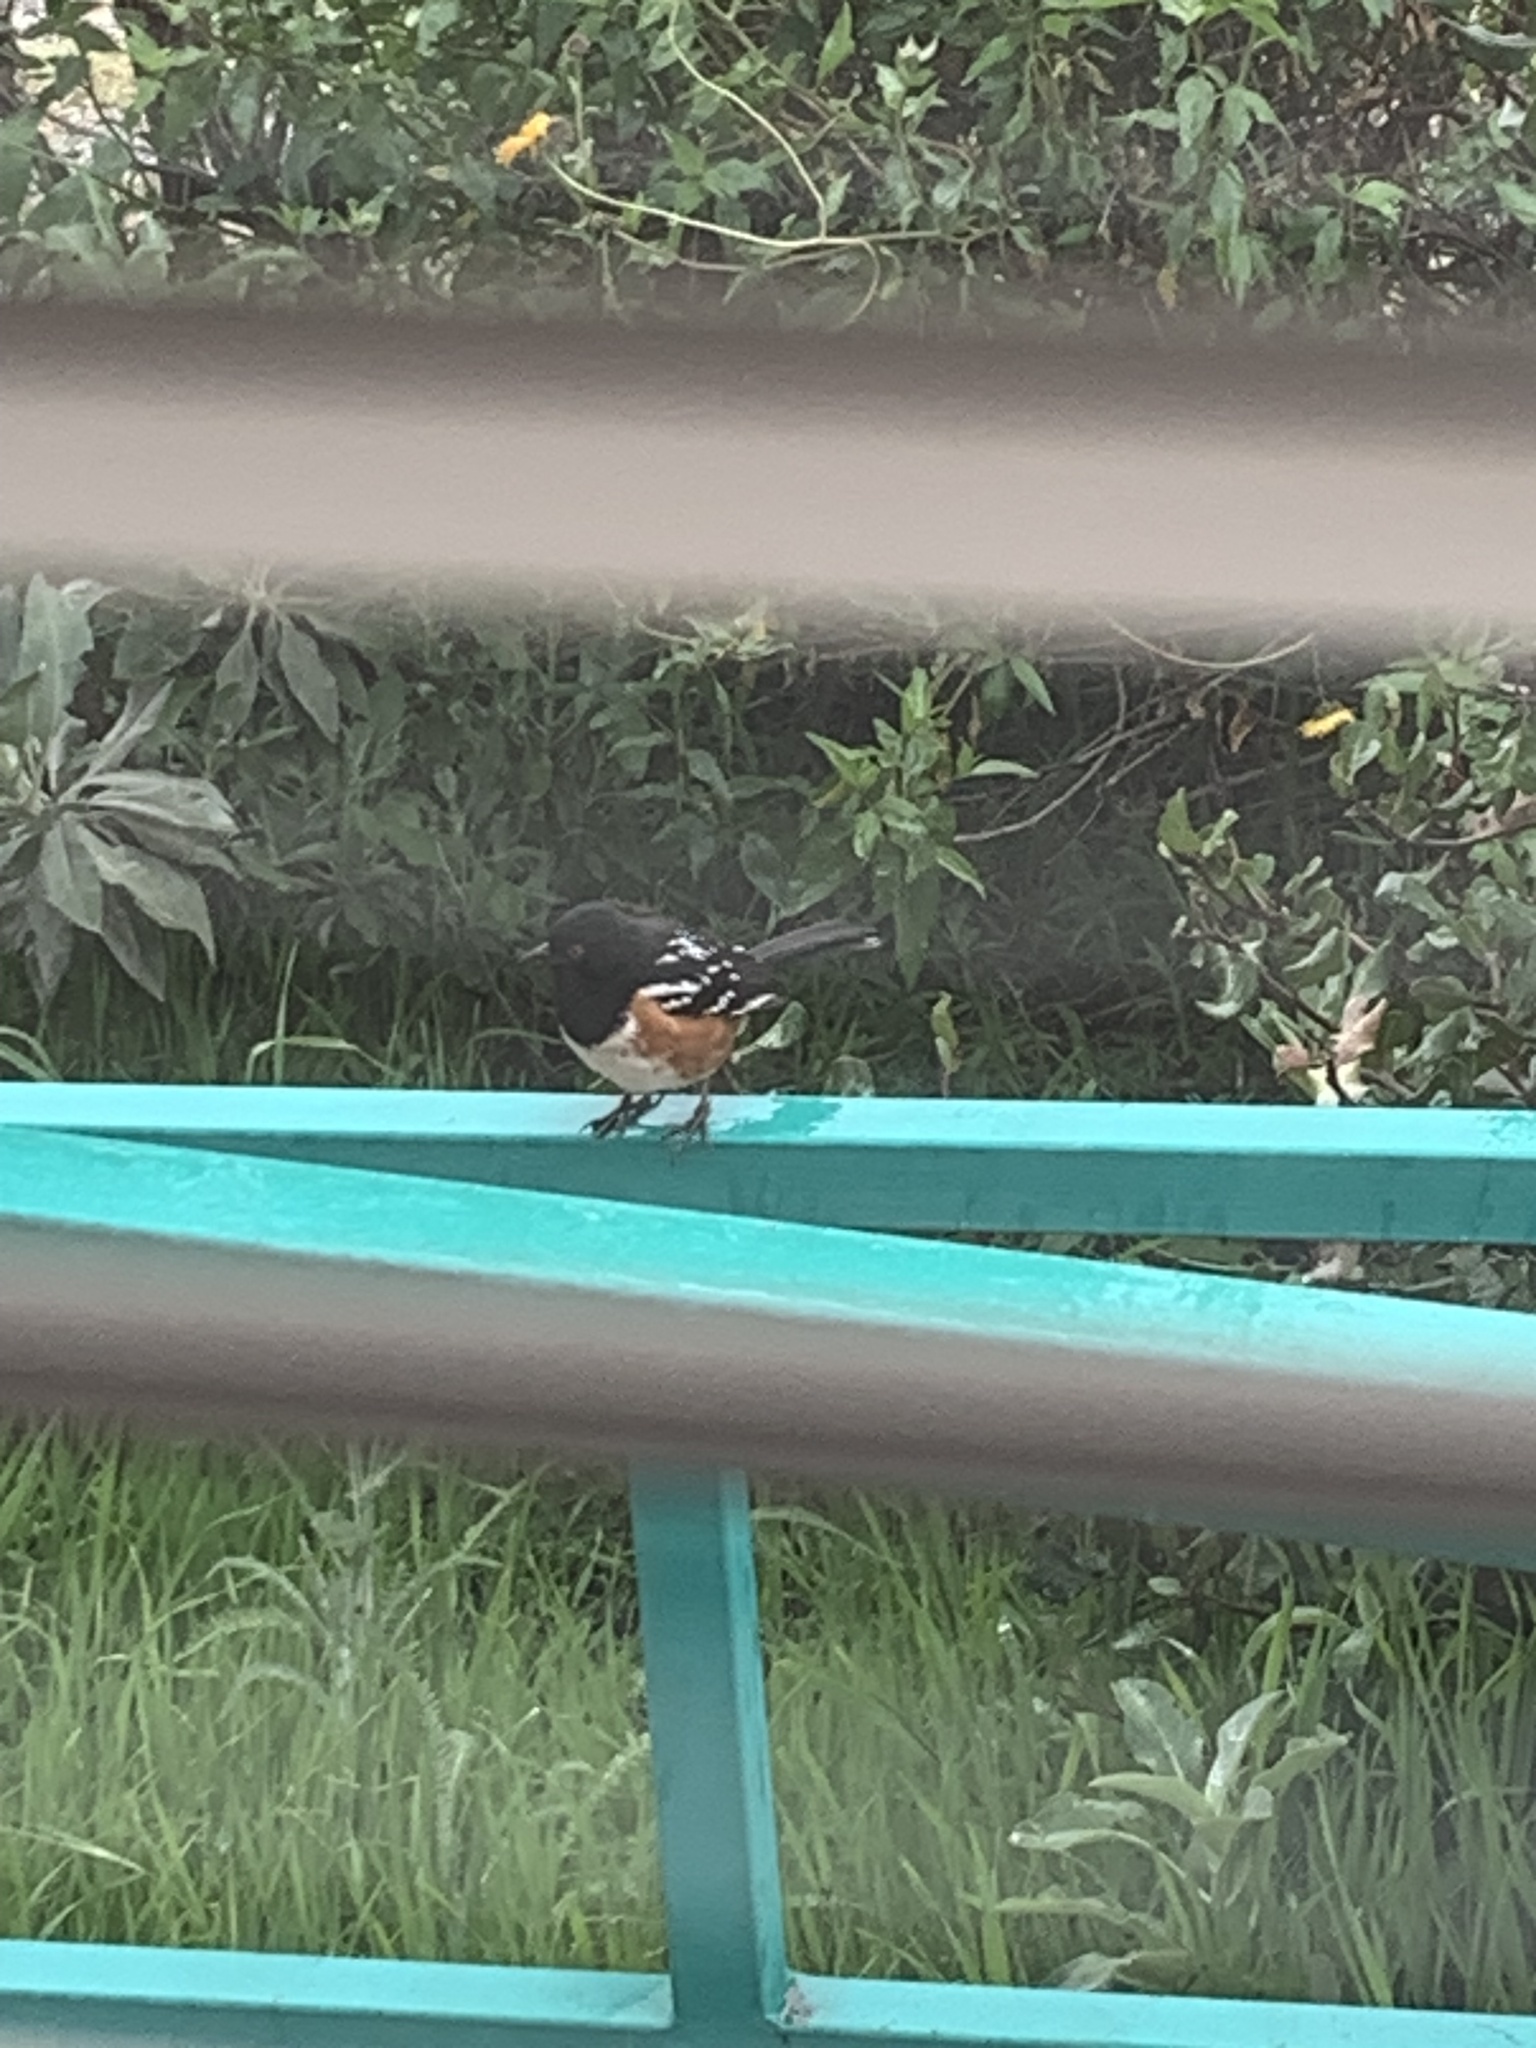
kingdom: Animalia
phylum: Chordata
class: Aves
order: Passeriformes
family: Passerellidae
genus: Pipilo
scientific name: Pipilo maculatus
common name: Spotted towhee
